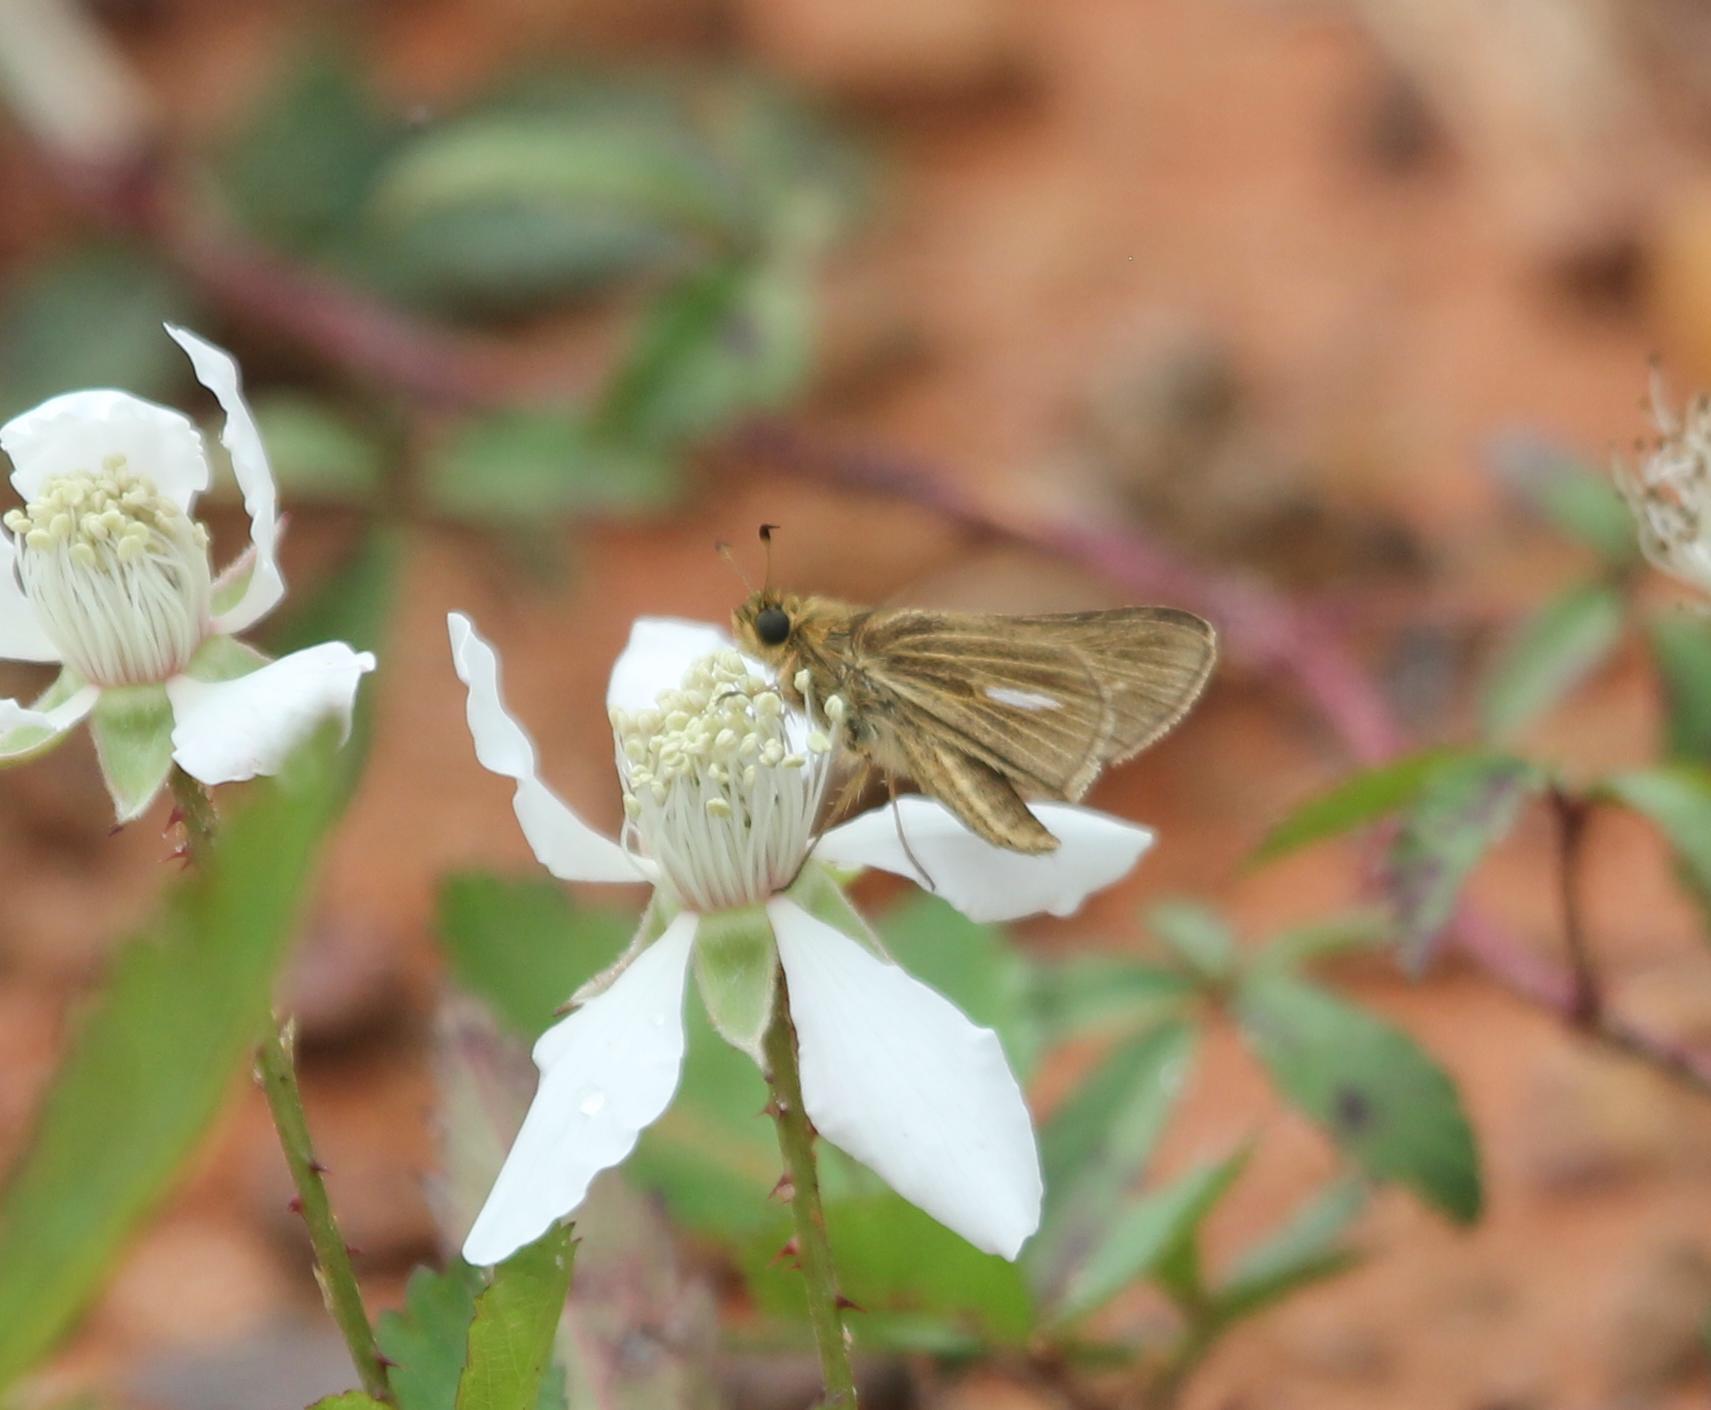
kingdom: Animalia
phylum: Arthropoda
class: Insecta
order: Lepidoptera
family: Hesperiidae
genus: Panoquina
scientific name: Panoquina panoquin
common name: Salt marsh skipper
